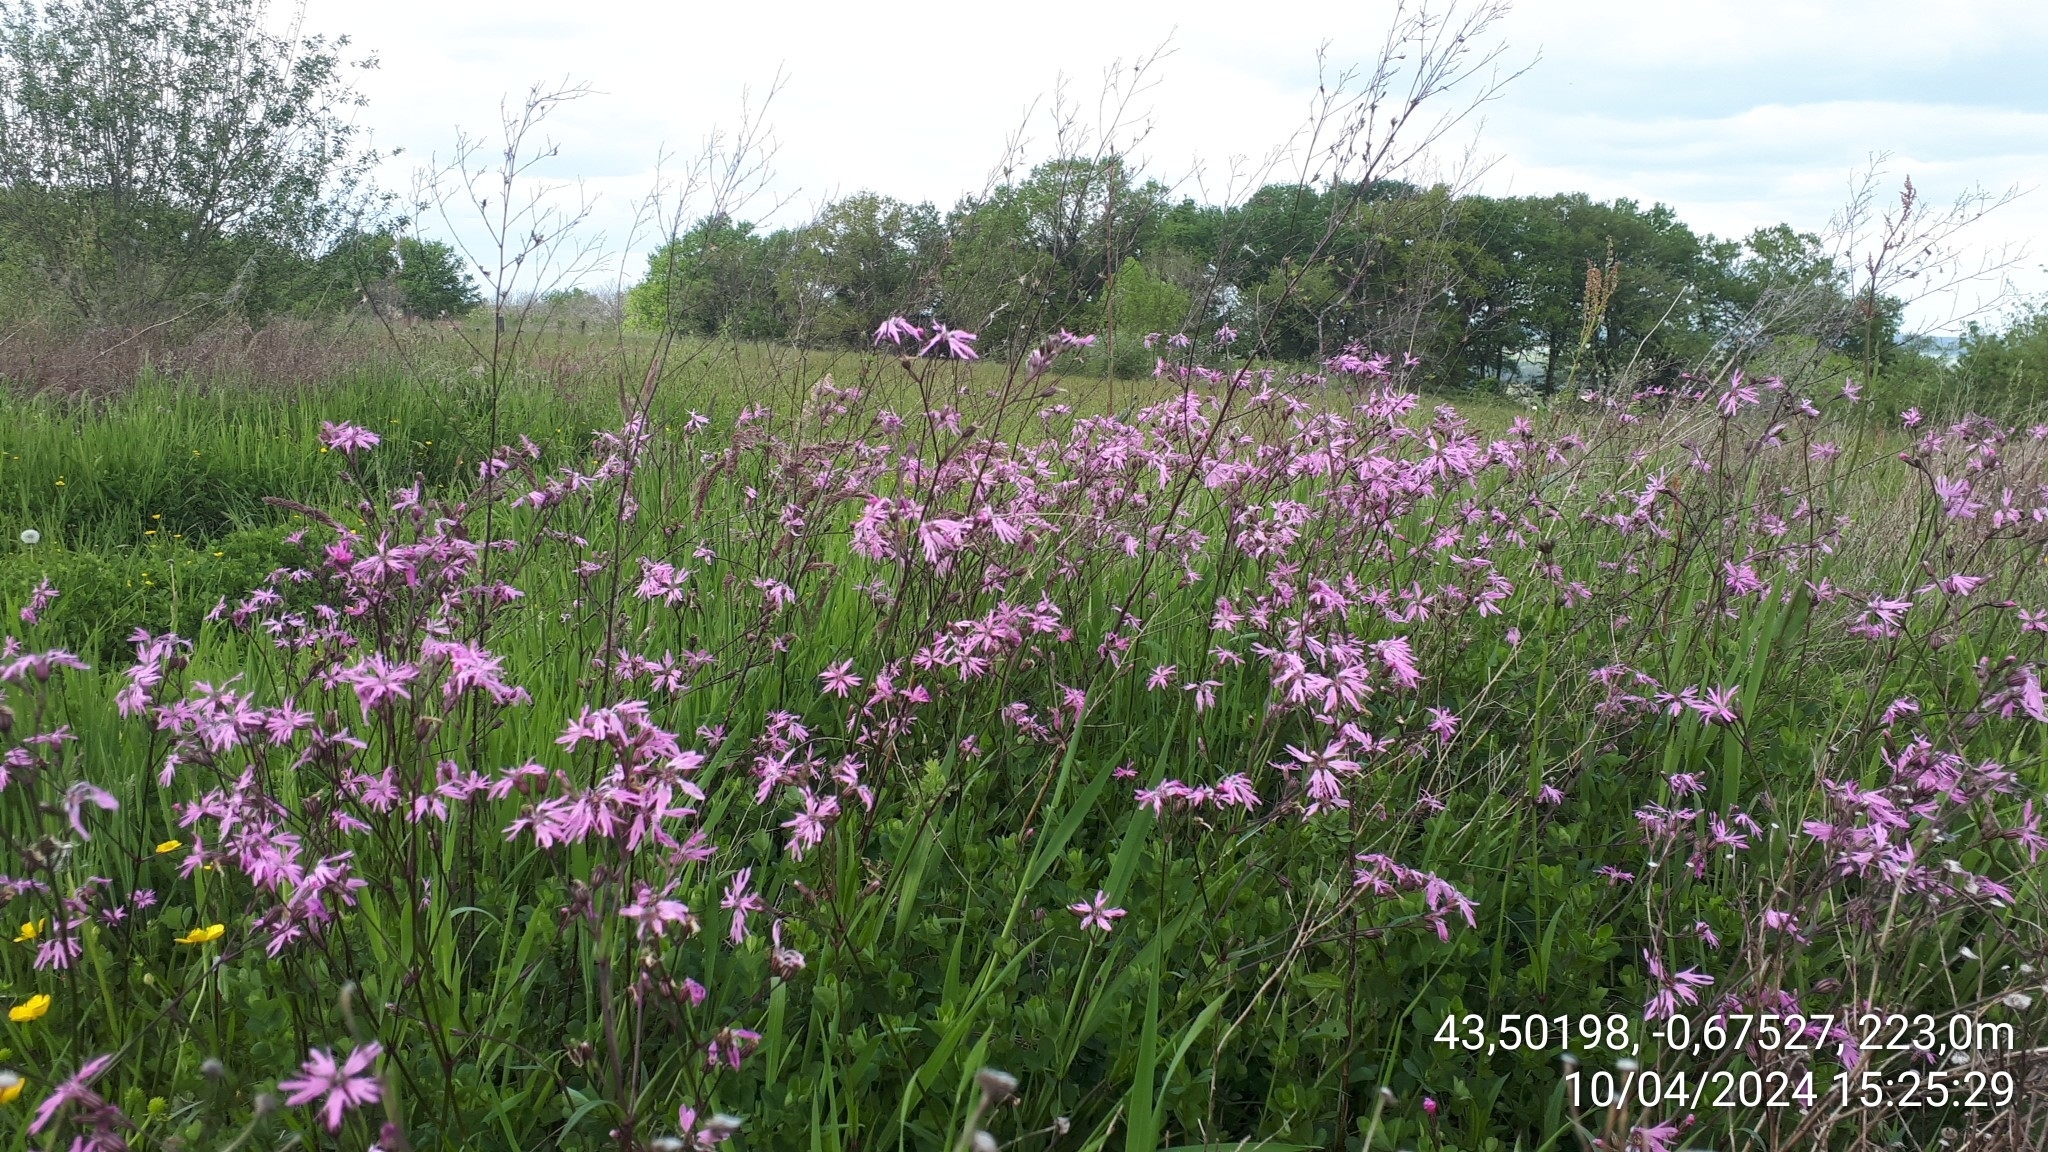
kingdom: Plantae
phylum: Tracheophyta
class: Magnoliopsida
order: Caryophyllales
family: Caryophyllaceae
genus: Silene
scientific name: Silene flos-cuculi
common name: Ragged-robin
